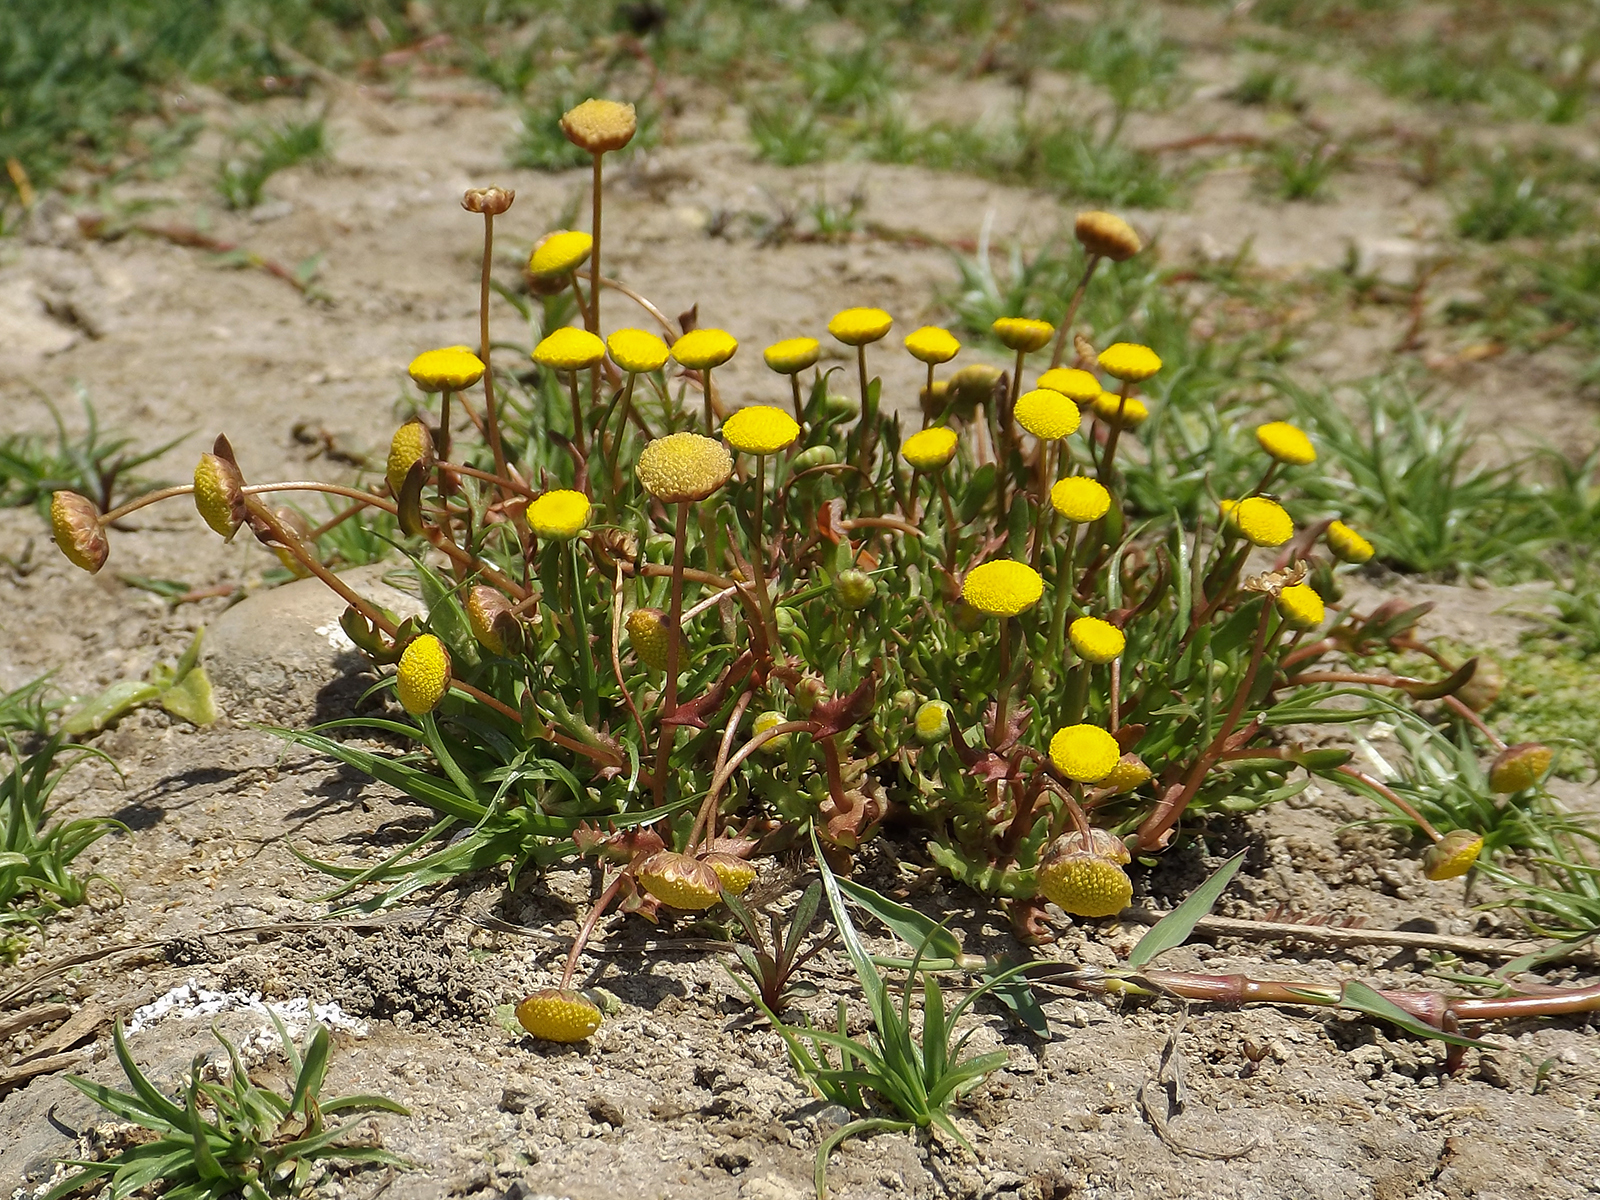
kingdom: Plantae
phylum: Tracheophyta
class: Magnoliopsida
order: Asterales
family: Asteraceae
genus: Cotula
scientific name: Cotula coronopifolia
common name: Buttonweed
